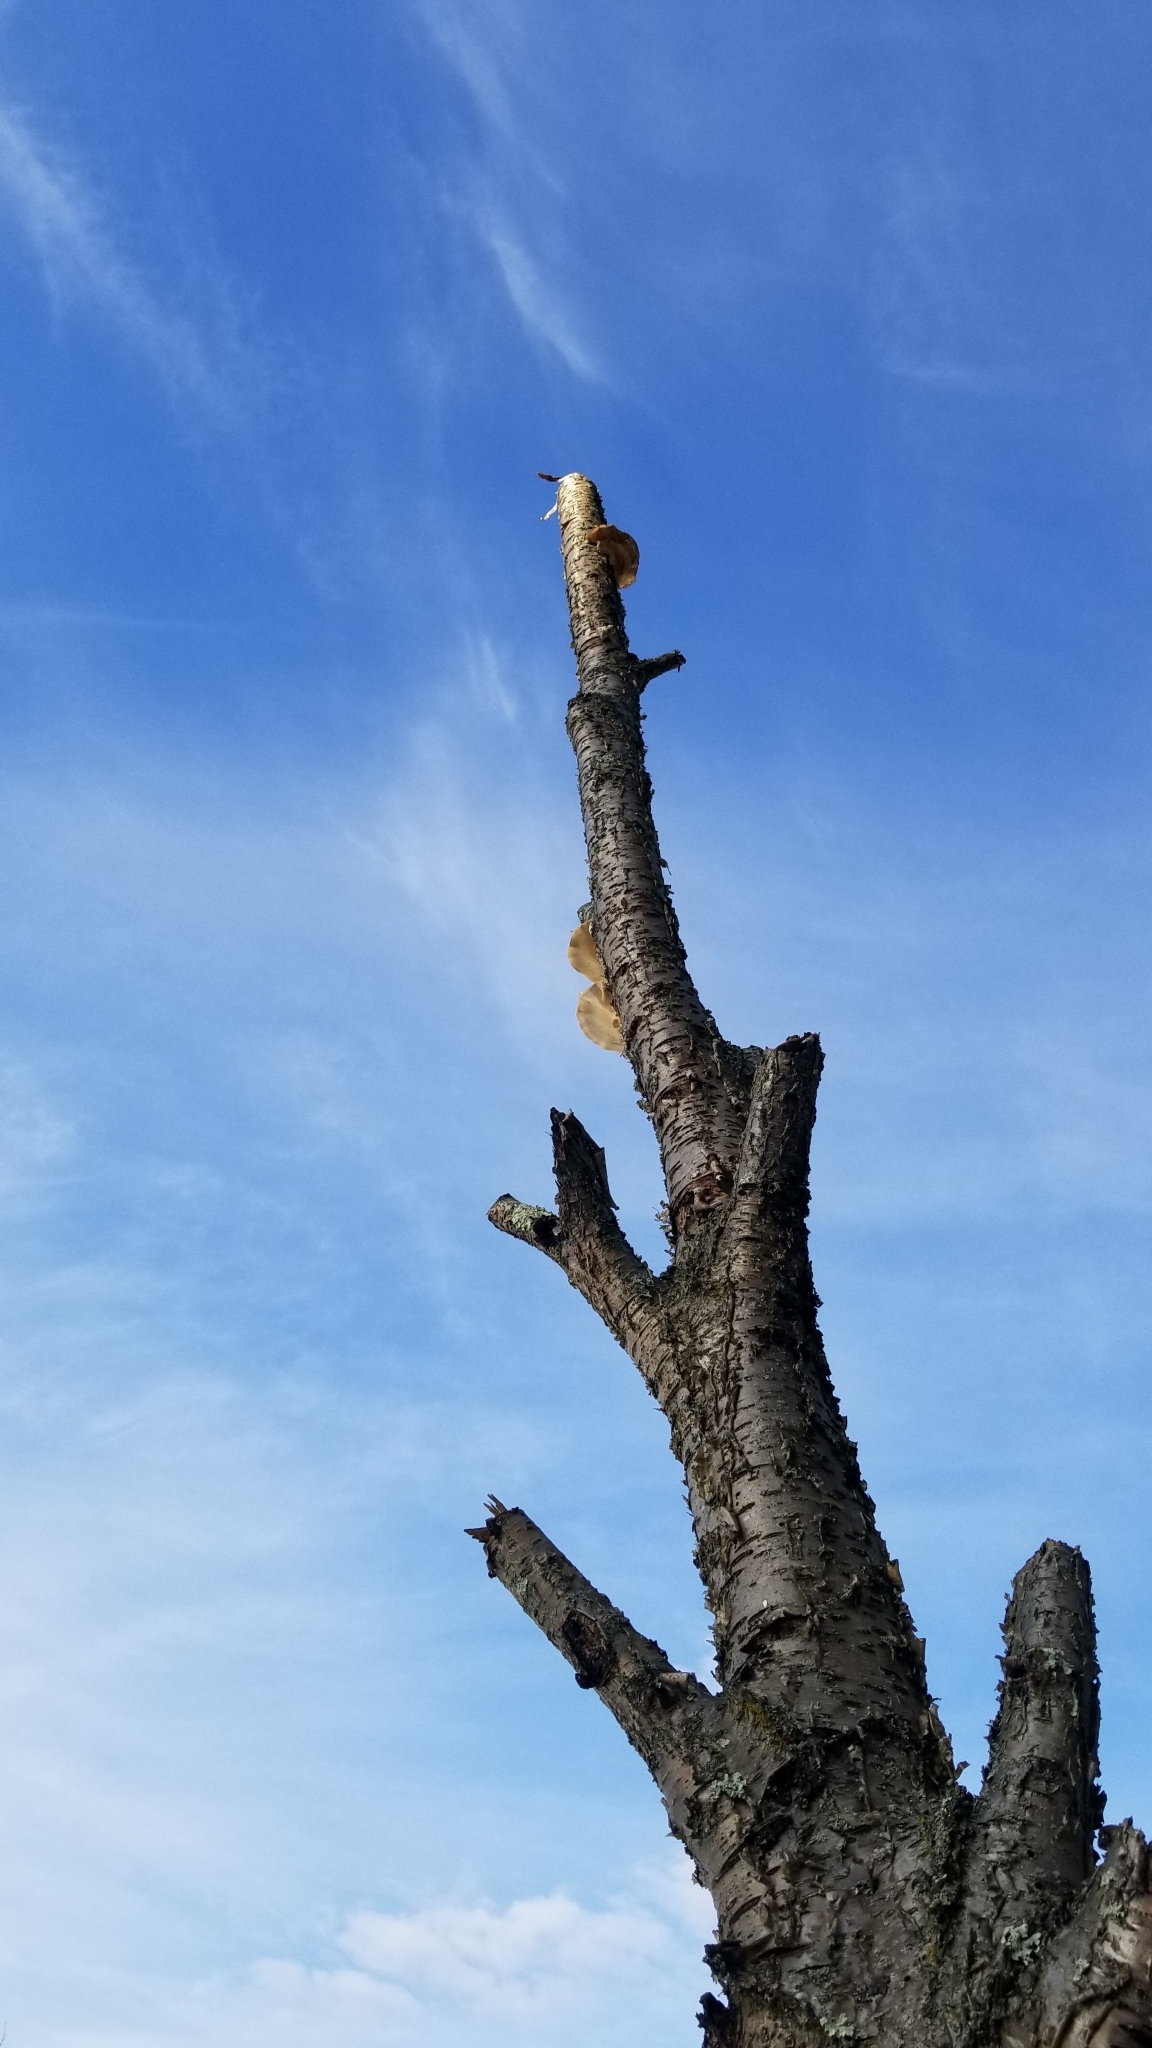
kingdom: Fungi
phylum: Basidiomycota
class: Agaricomycetes
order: Polyporales
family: Fomitopsidaceae
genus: Fomitopsis
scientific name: Fomitopsis betulina
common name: Birch polypore
